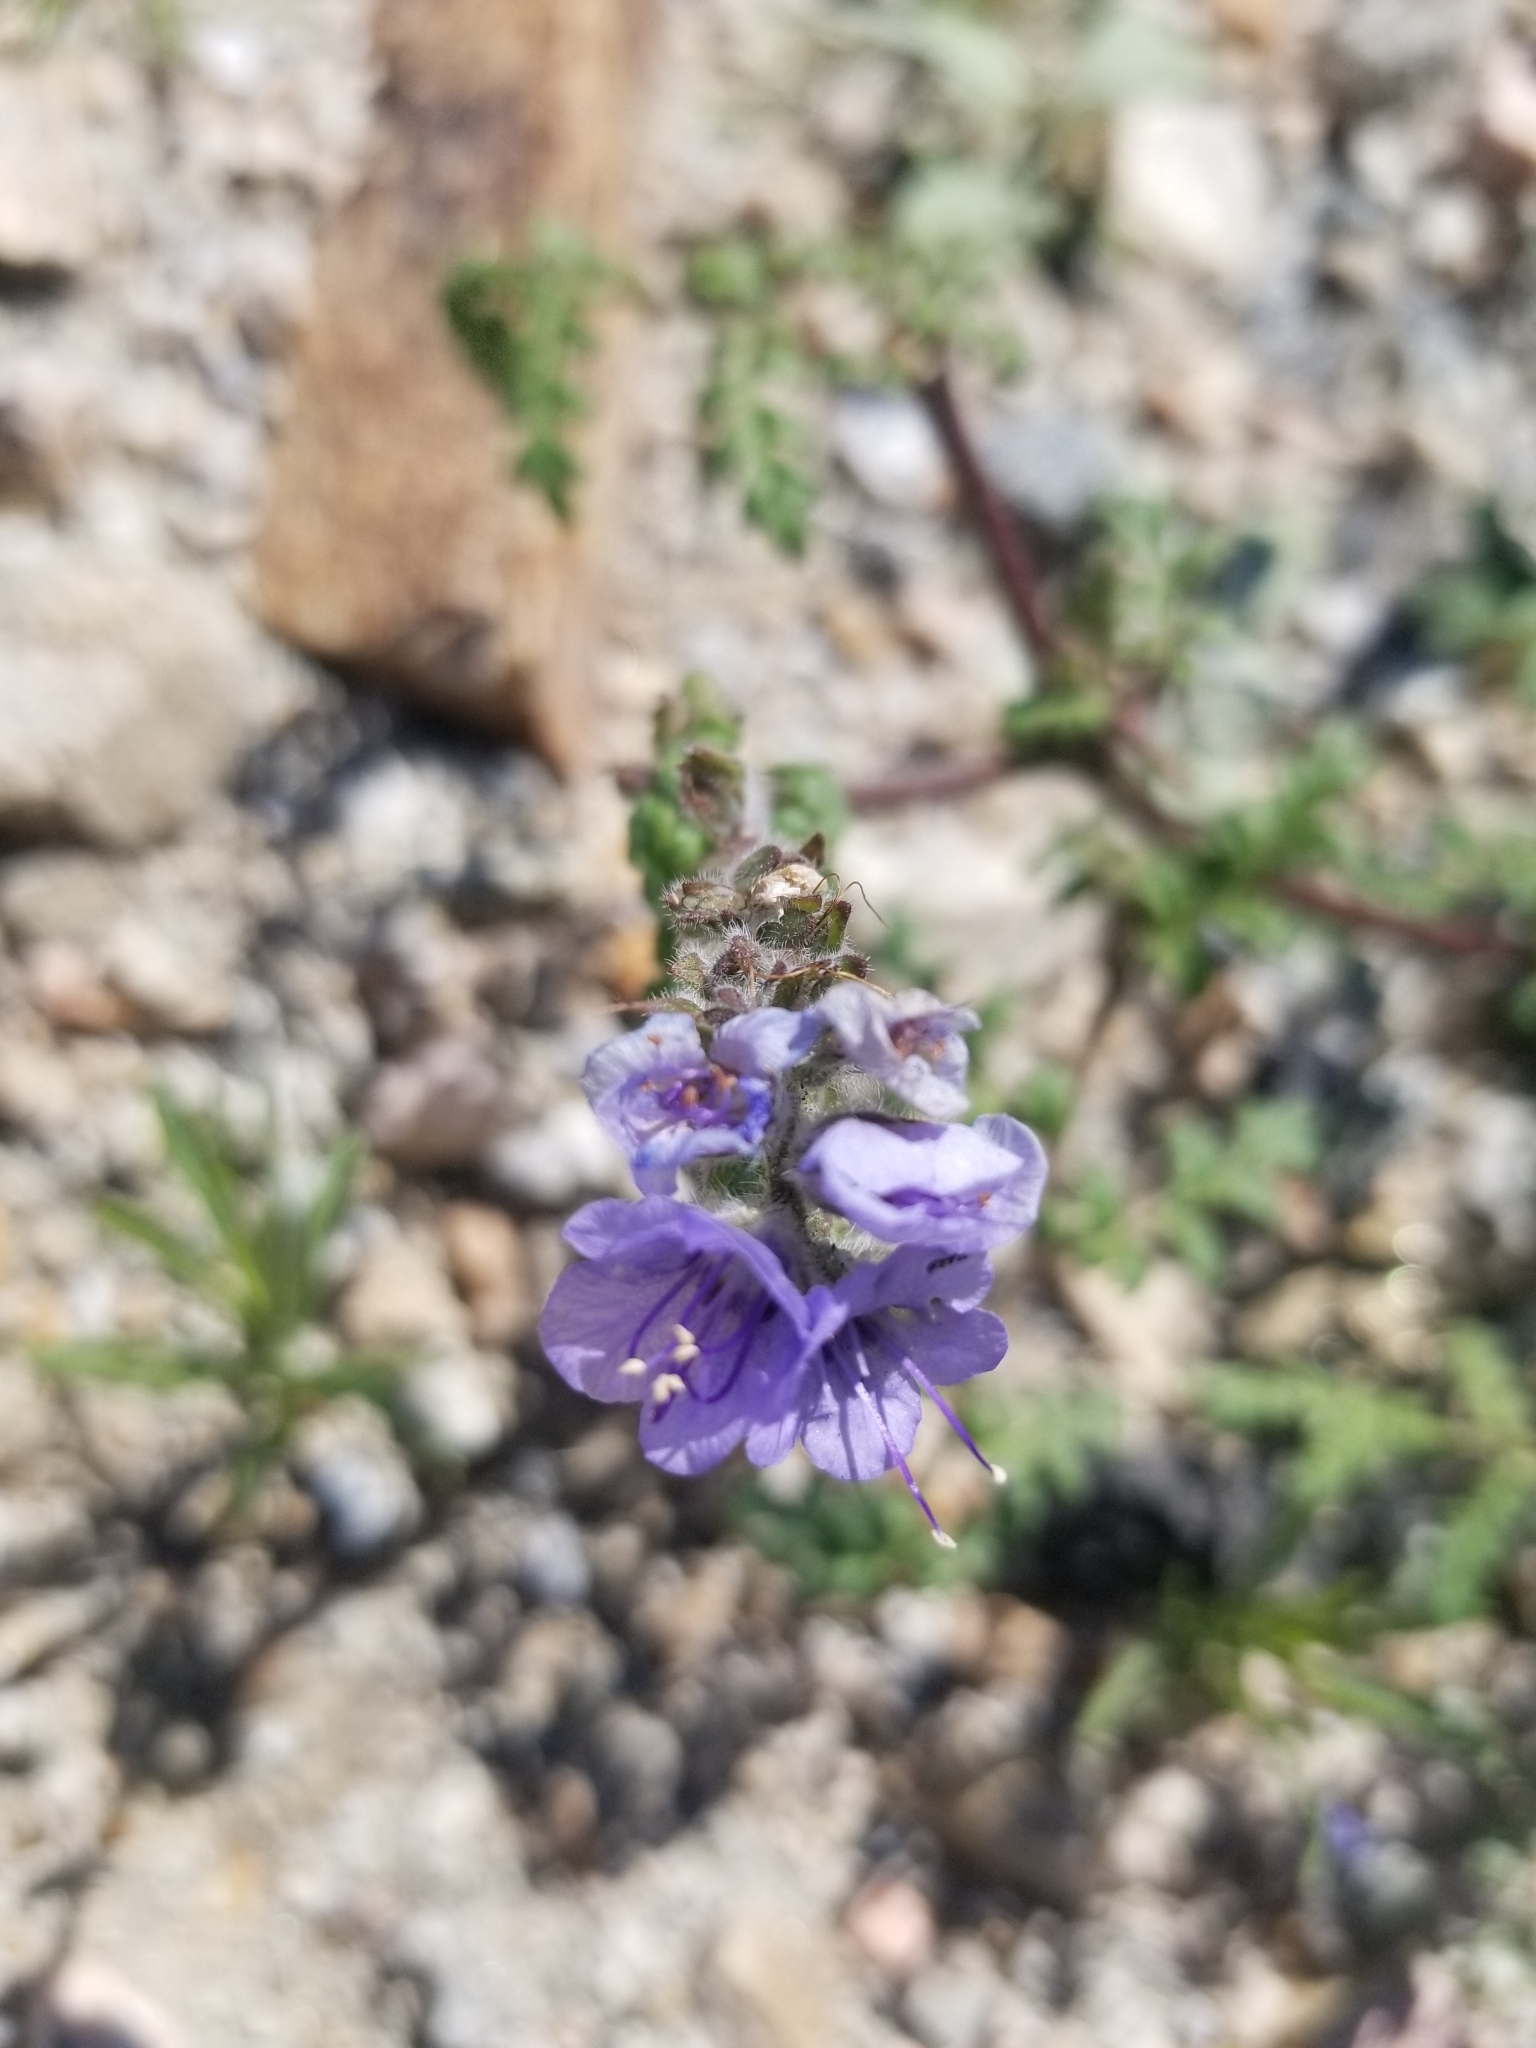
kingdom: Plantae
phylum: Tracheophyta
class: Magnoliopsida
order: Boraginales
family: Hydrophyllaceae
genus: Phacelia
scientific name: Phacelia distans
